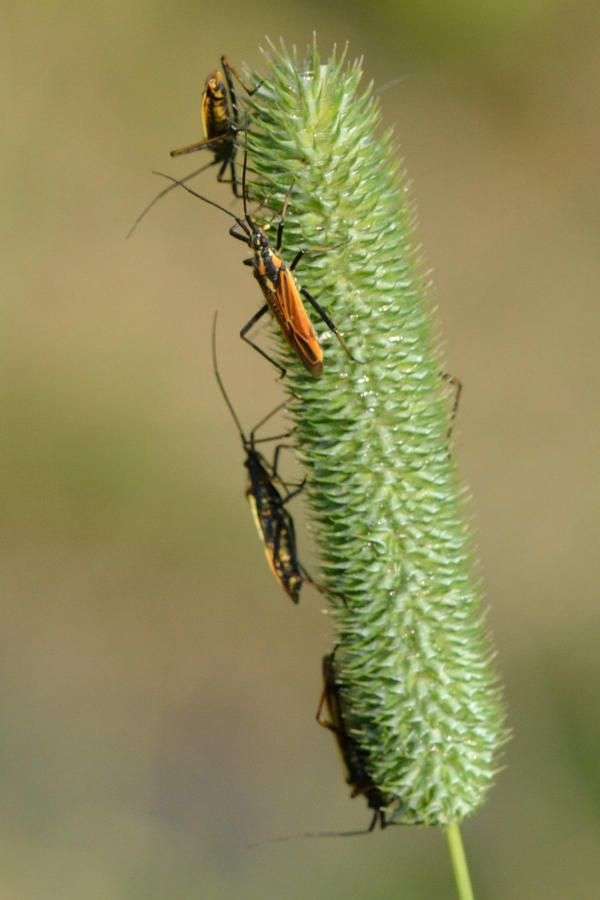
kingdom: Animalia
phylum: Arthropoda
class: Insecta
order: Hemiptera
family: Miridae
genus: Leptopterna
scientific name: Leptopterna dolabrata
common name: Meadow plant bug
